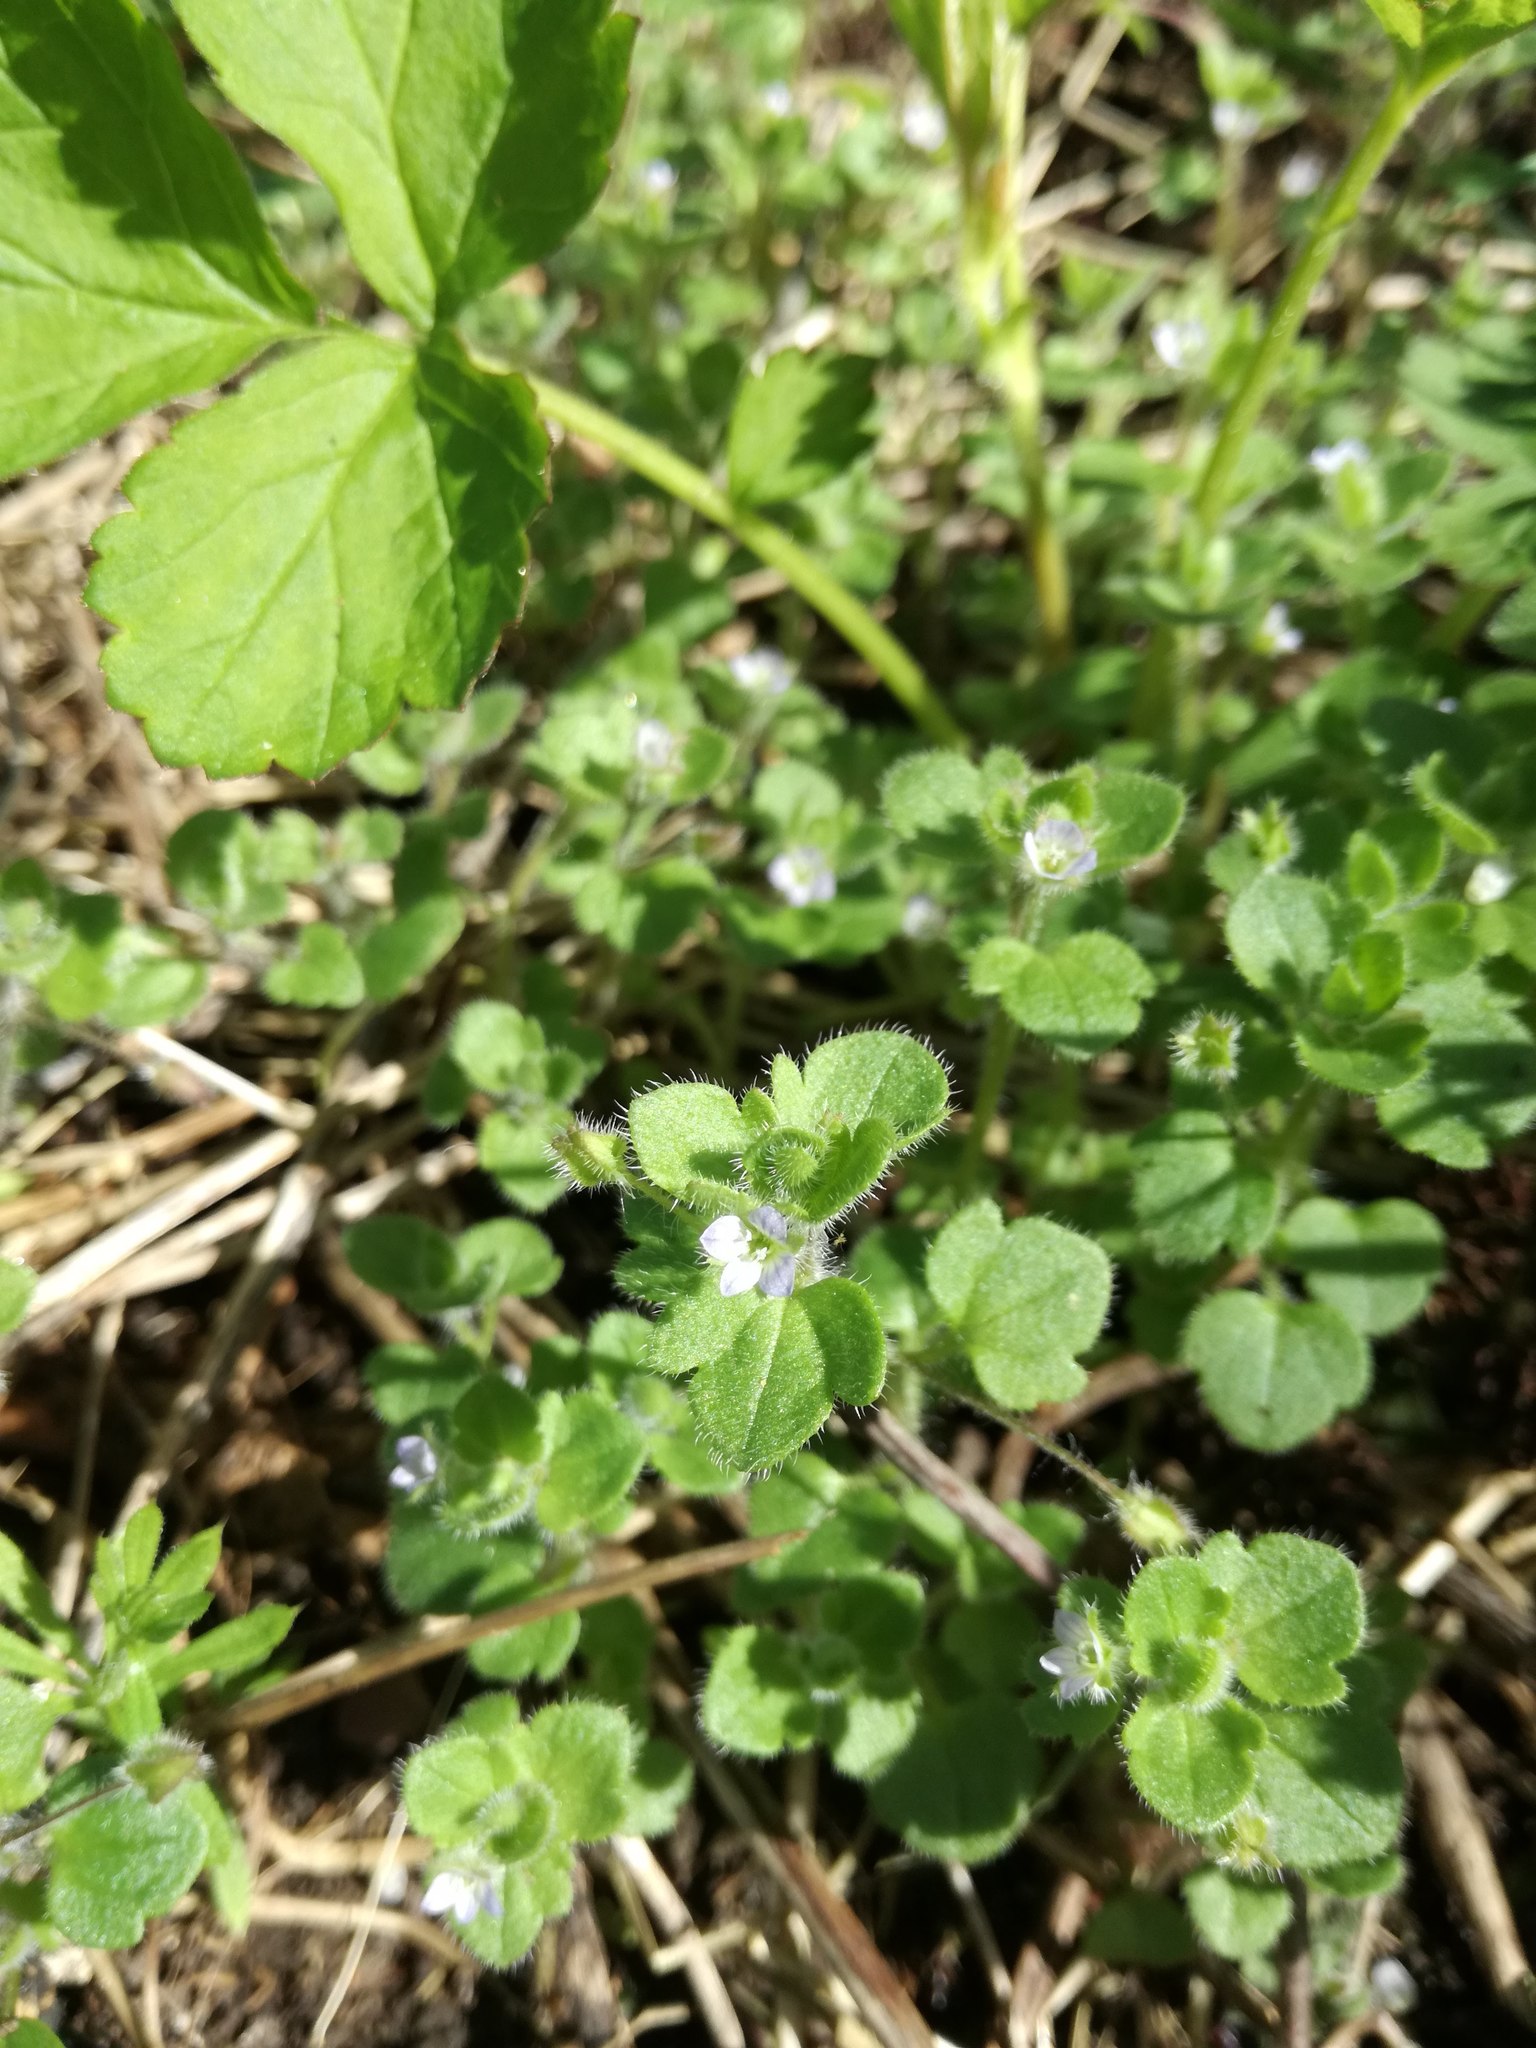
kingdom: Plantae
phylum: Tracheophyta
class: Magnoliopsida
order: Lamiales
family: Plantaginaceae
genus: Veronica
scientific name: Veronica hederifolia
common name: Ivy-leaved speedwell
